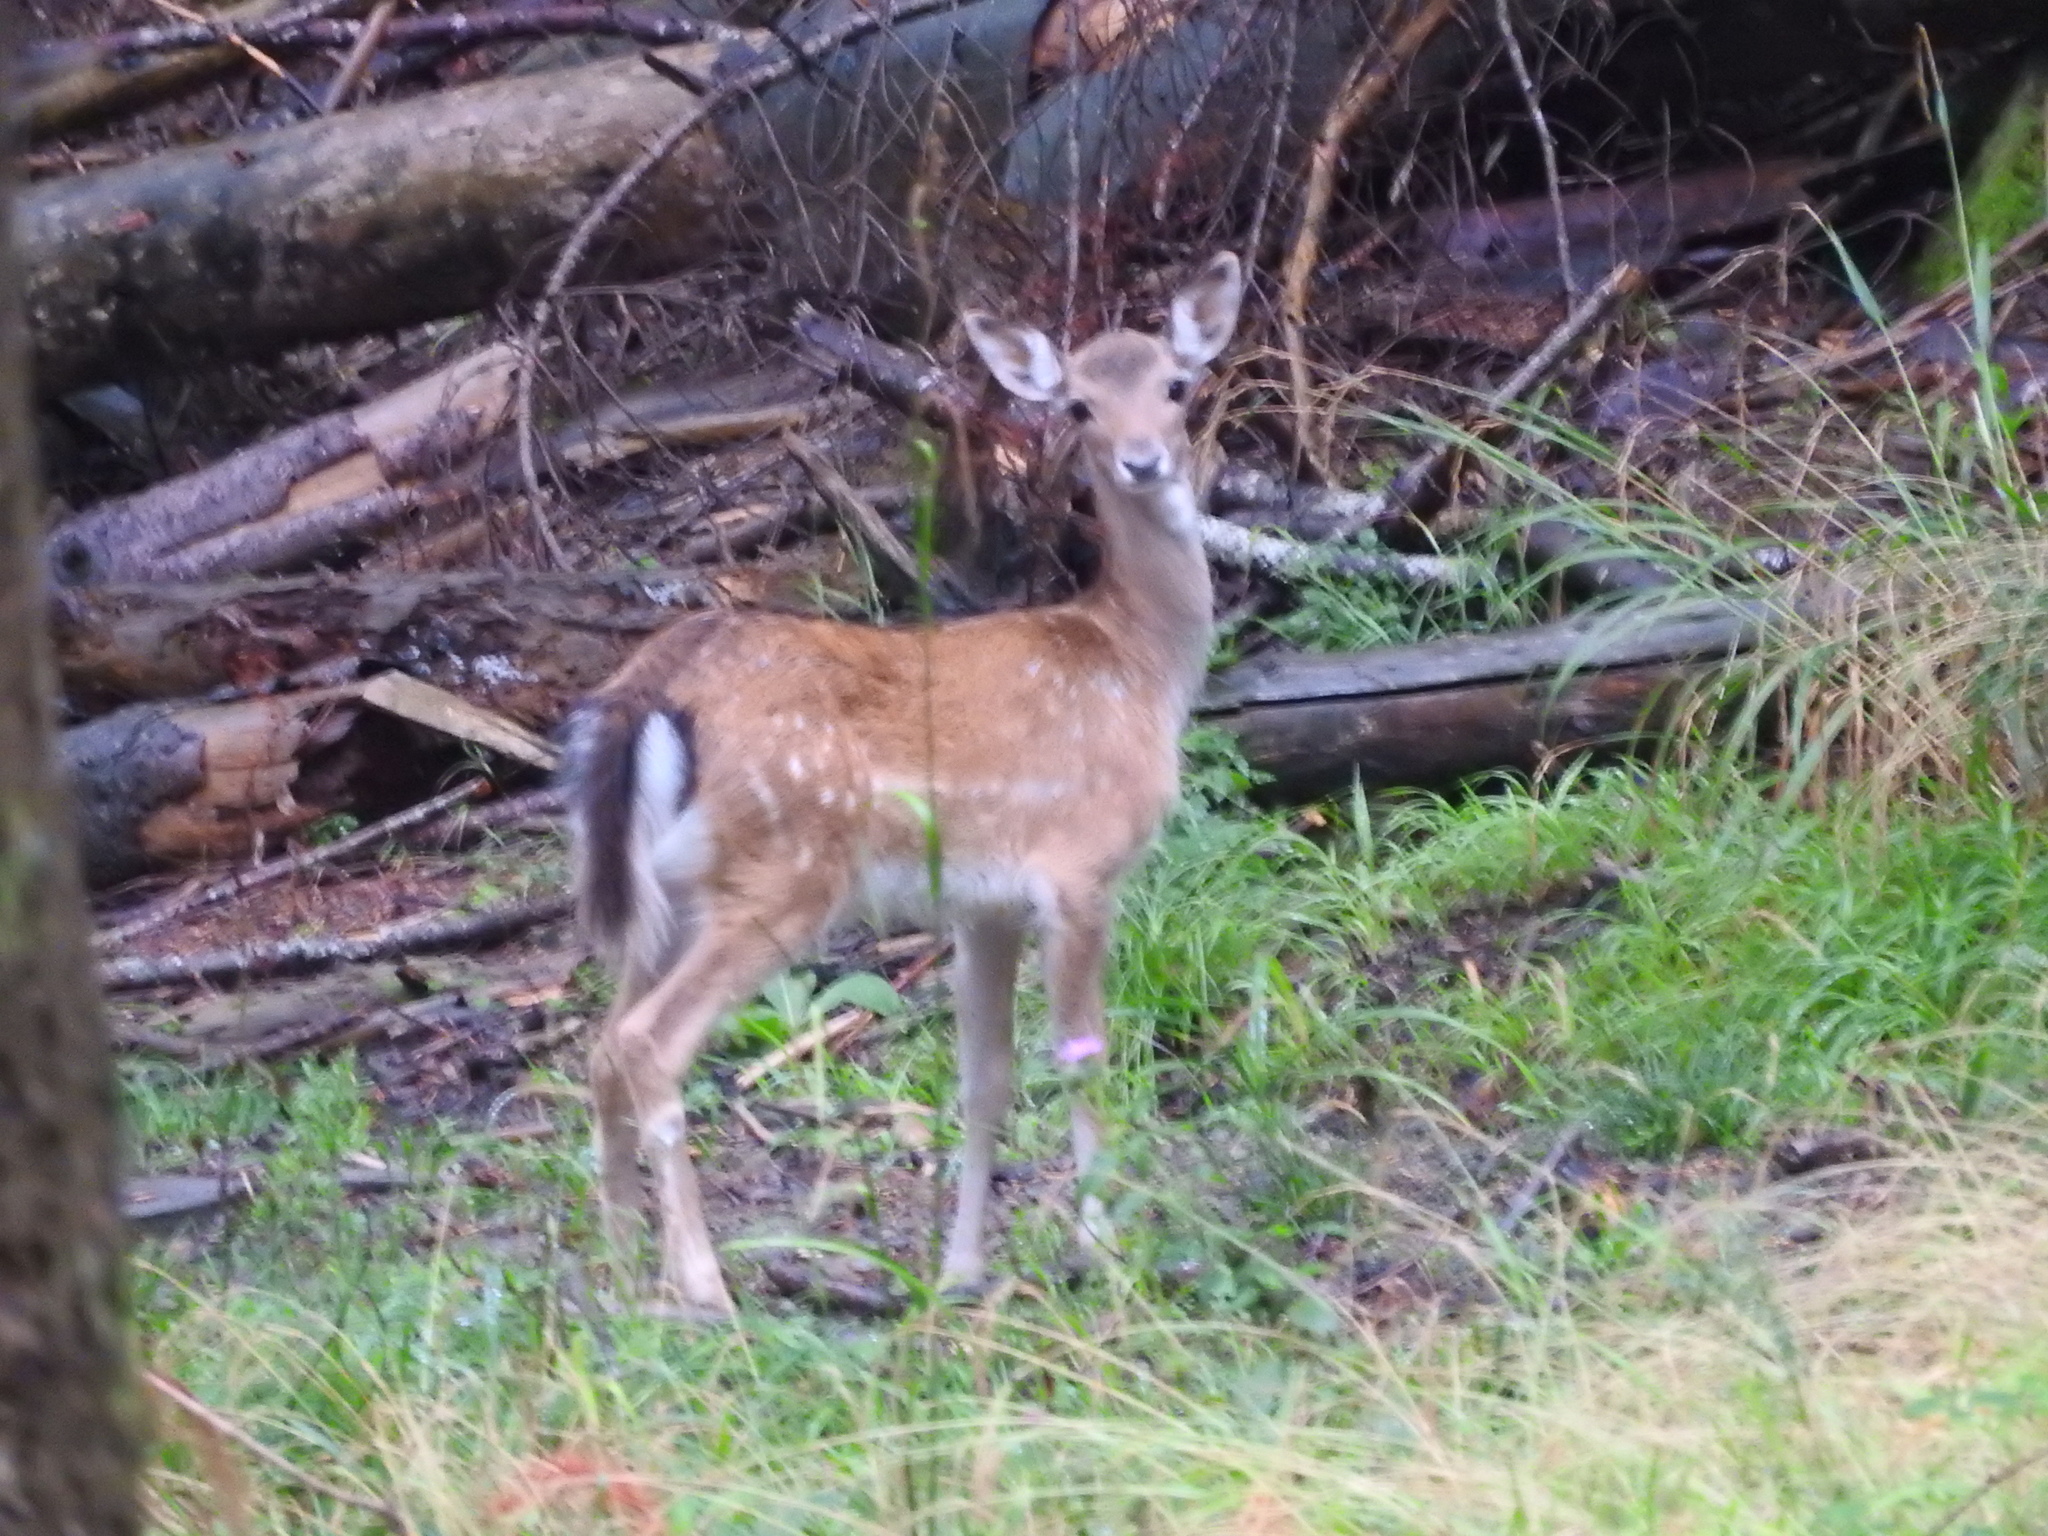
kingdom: Animalia
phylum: Chordata
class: Mammalia
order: Artiodactyla
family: Cervidae
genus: Dama
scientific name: Dama dama
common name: Fallow deer
